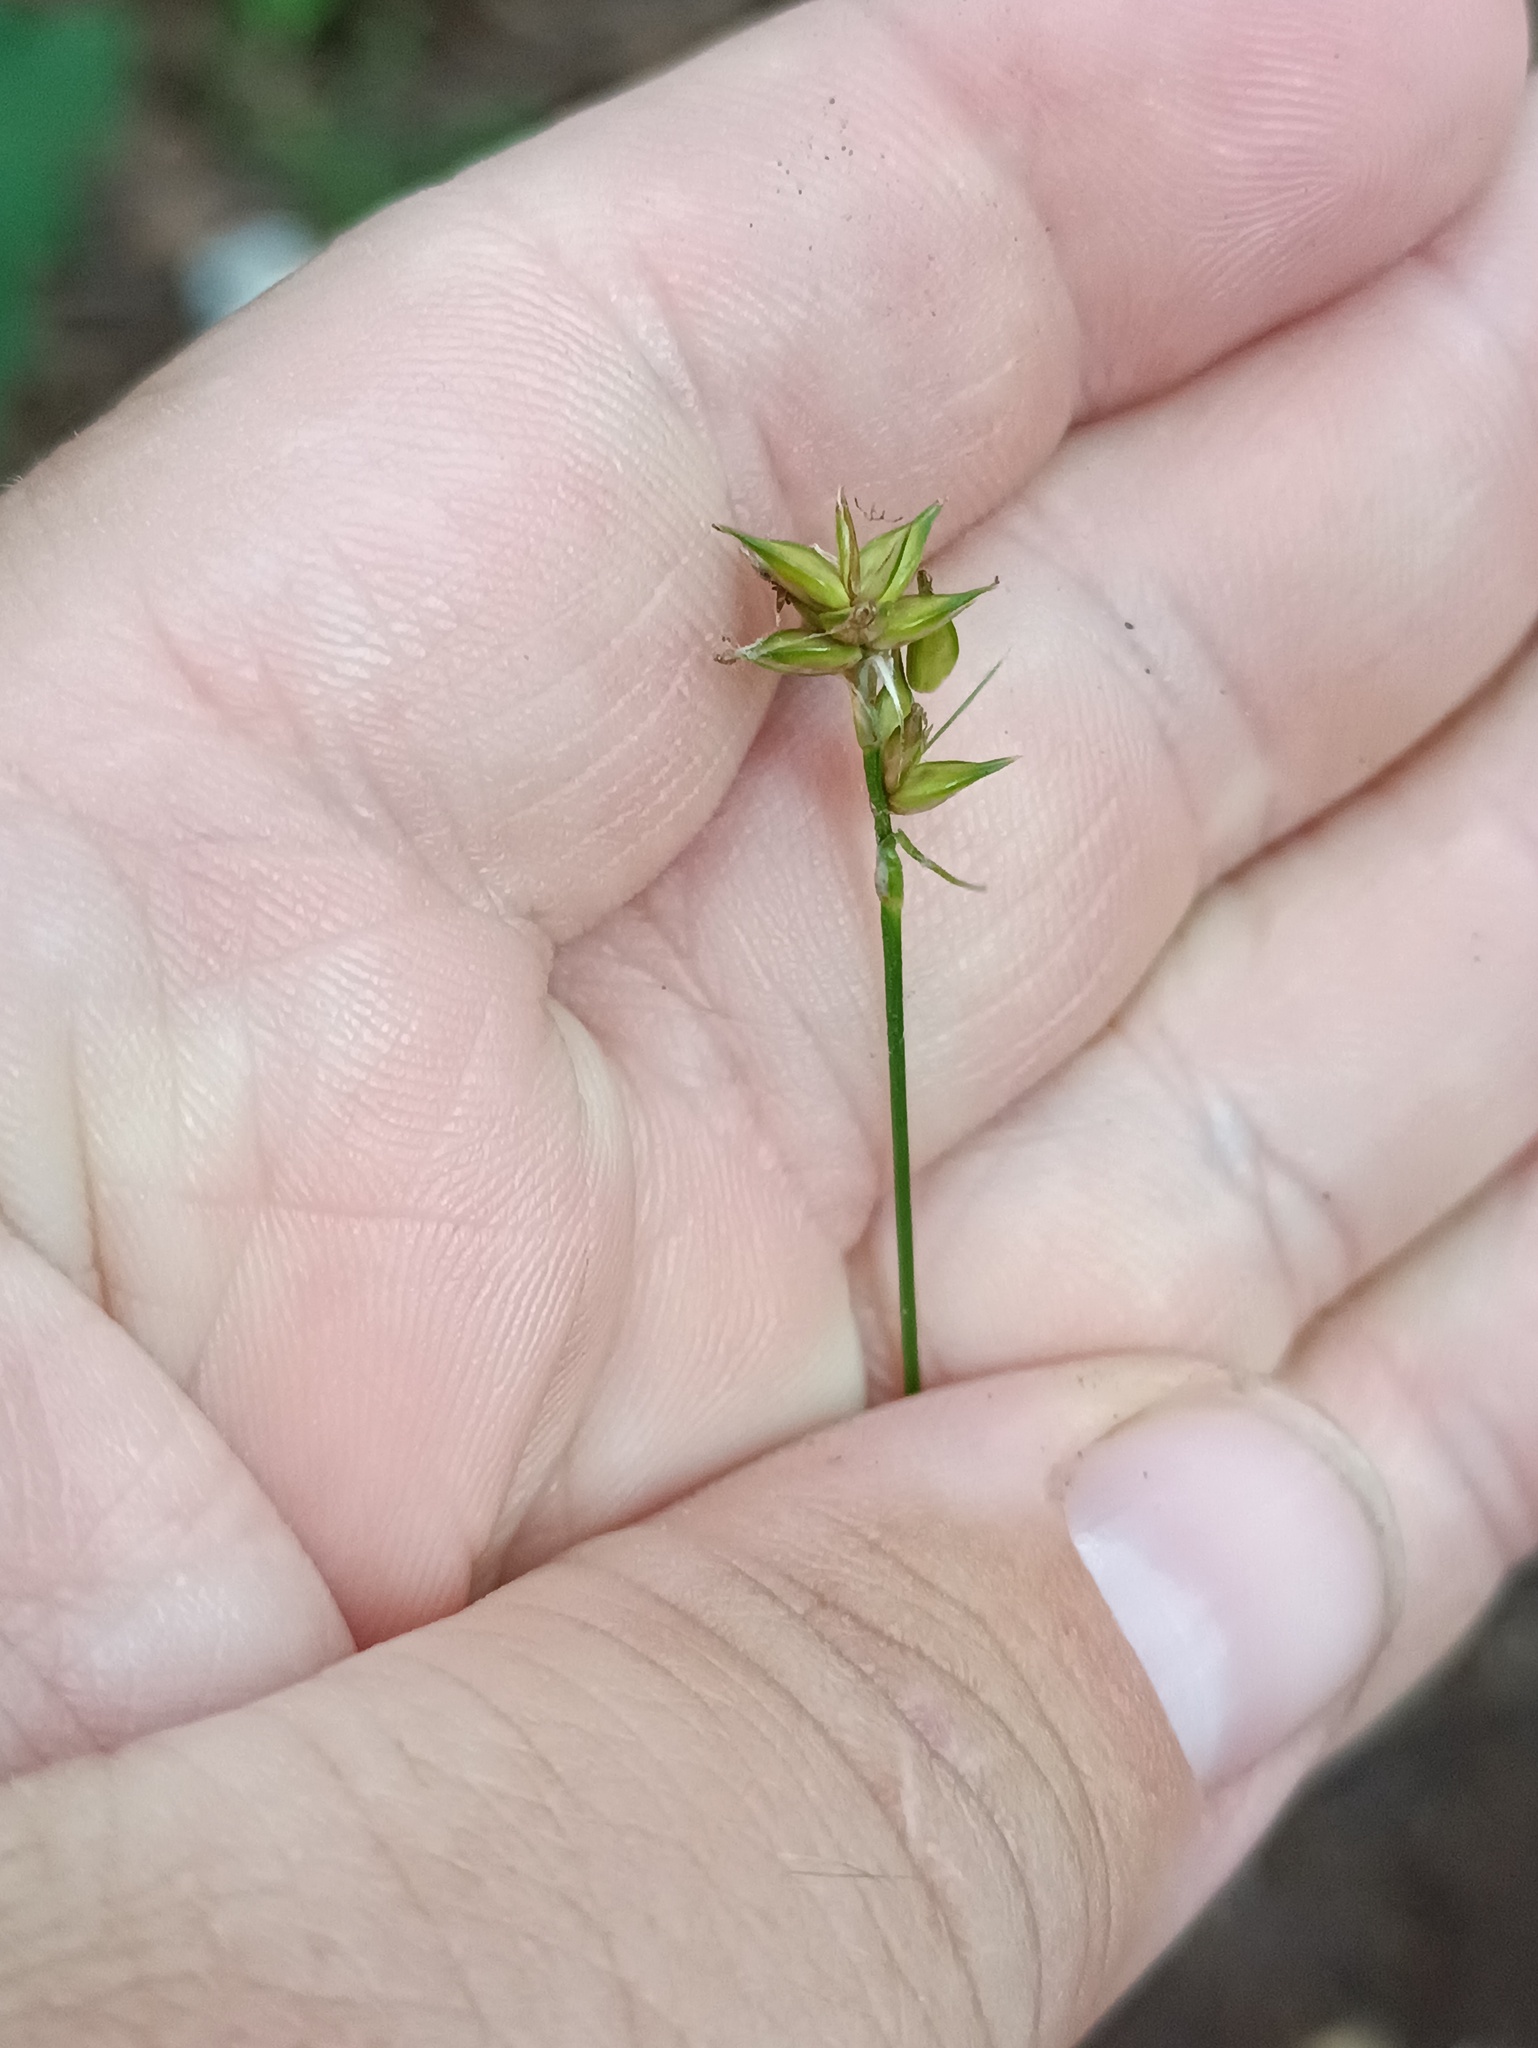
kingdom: Plantae
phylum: Tracheophyta
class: Liliopsida
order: Poales
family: Cyperaceae
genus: Carex
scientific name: Carex spicata
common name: Spiked sedge
